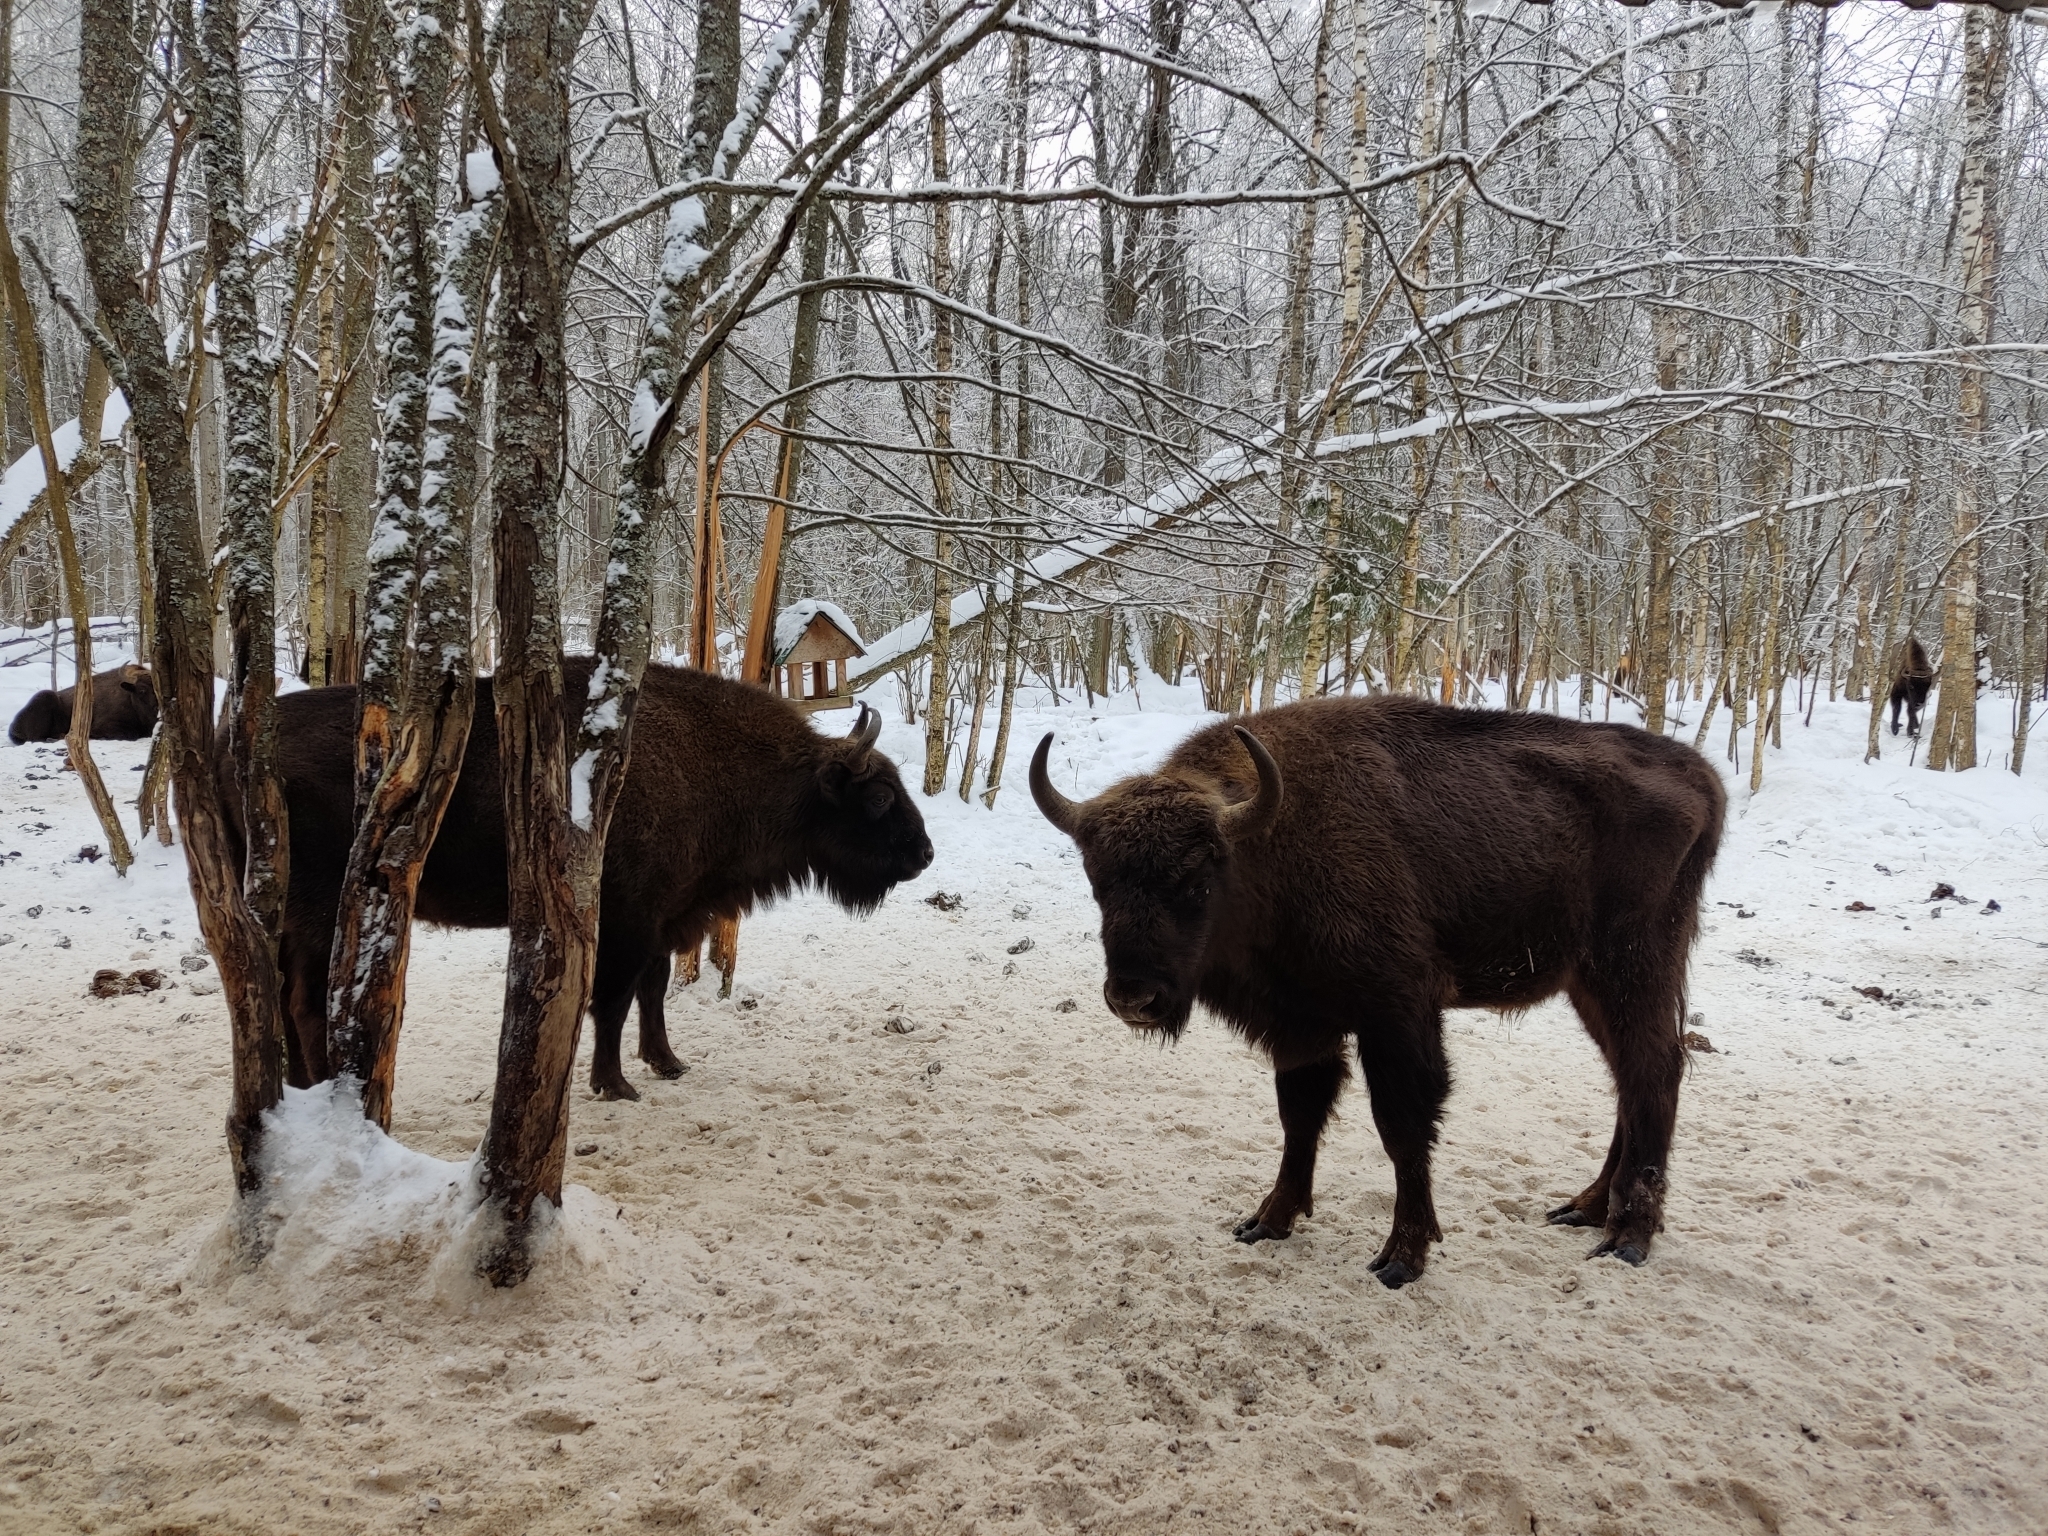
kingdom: Animalia
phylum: Chordata
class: Mammalia
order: Artiodactyla
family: Bovidae
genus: Bison
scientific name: Bison bonasus
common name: European bison
